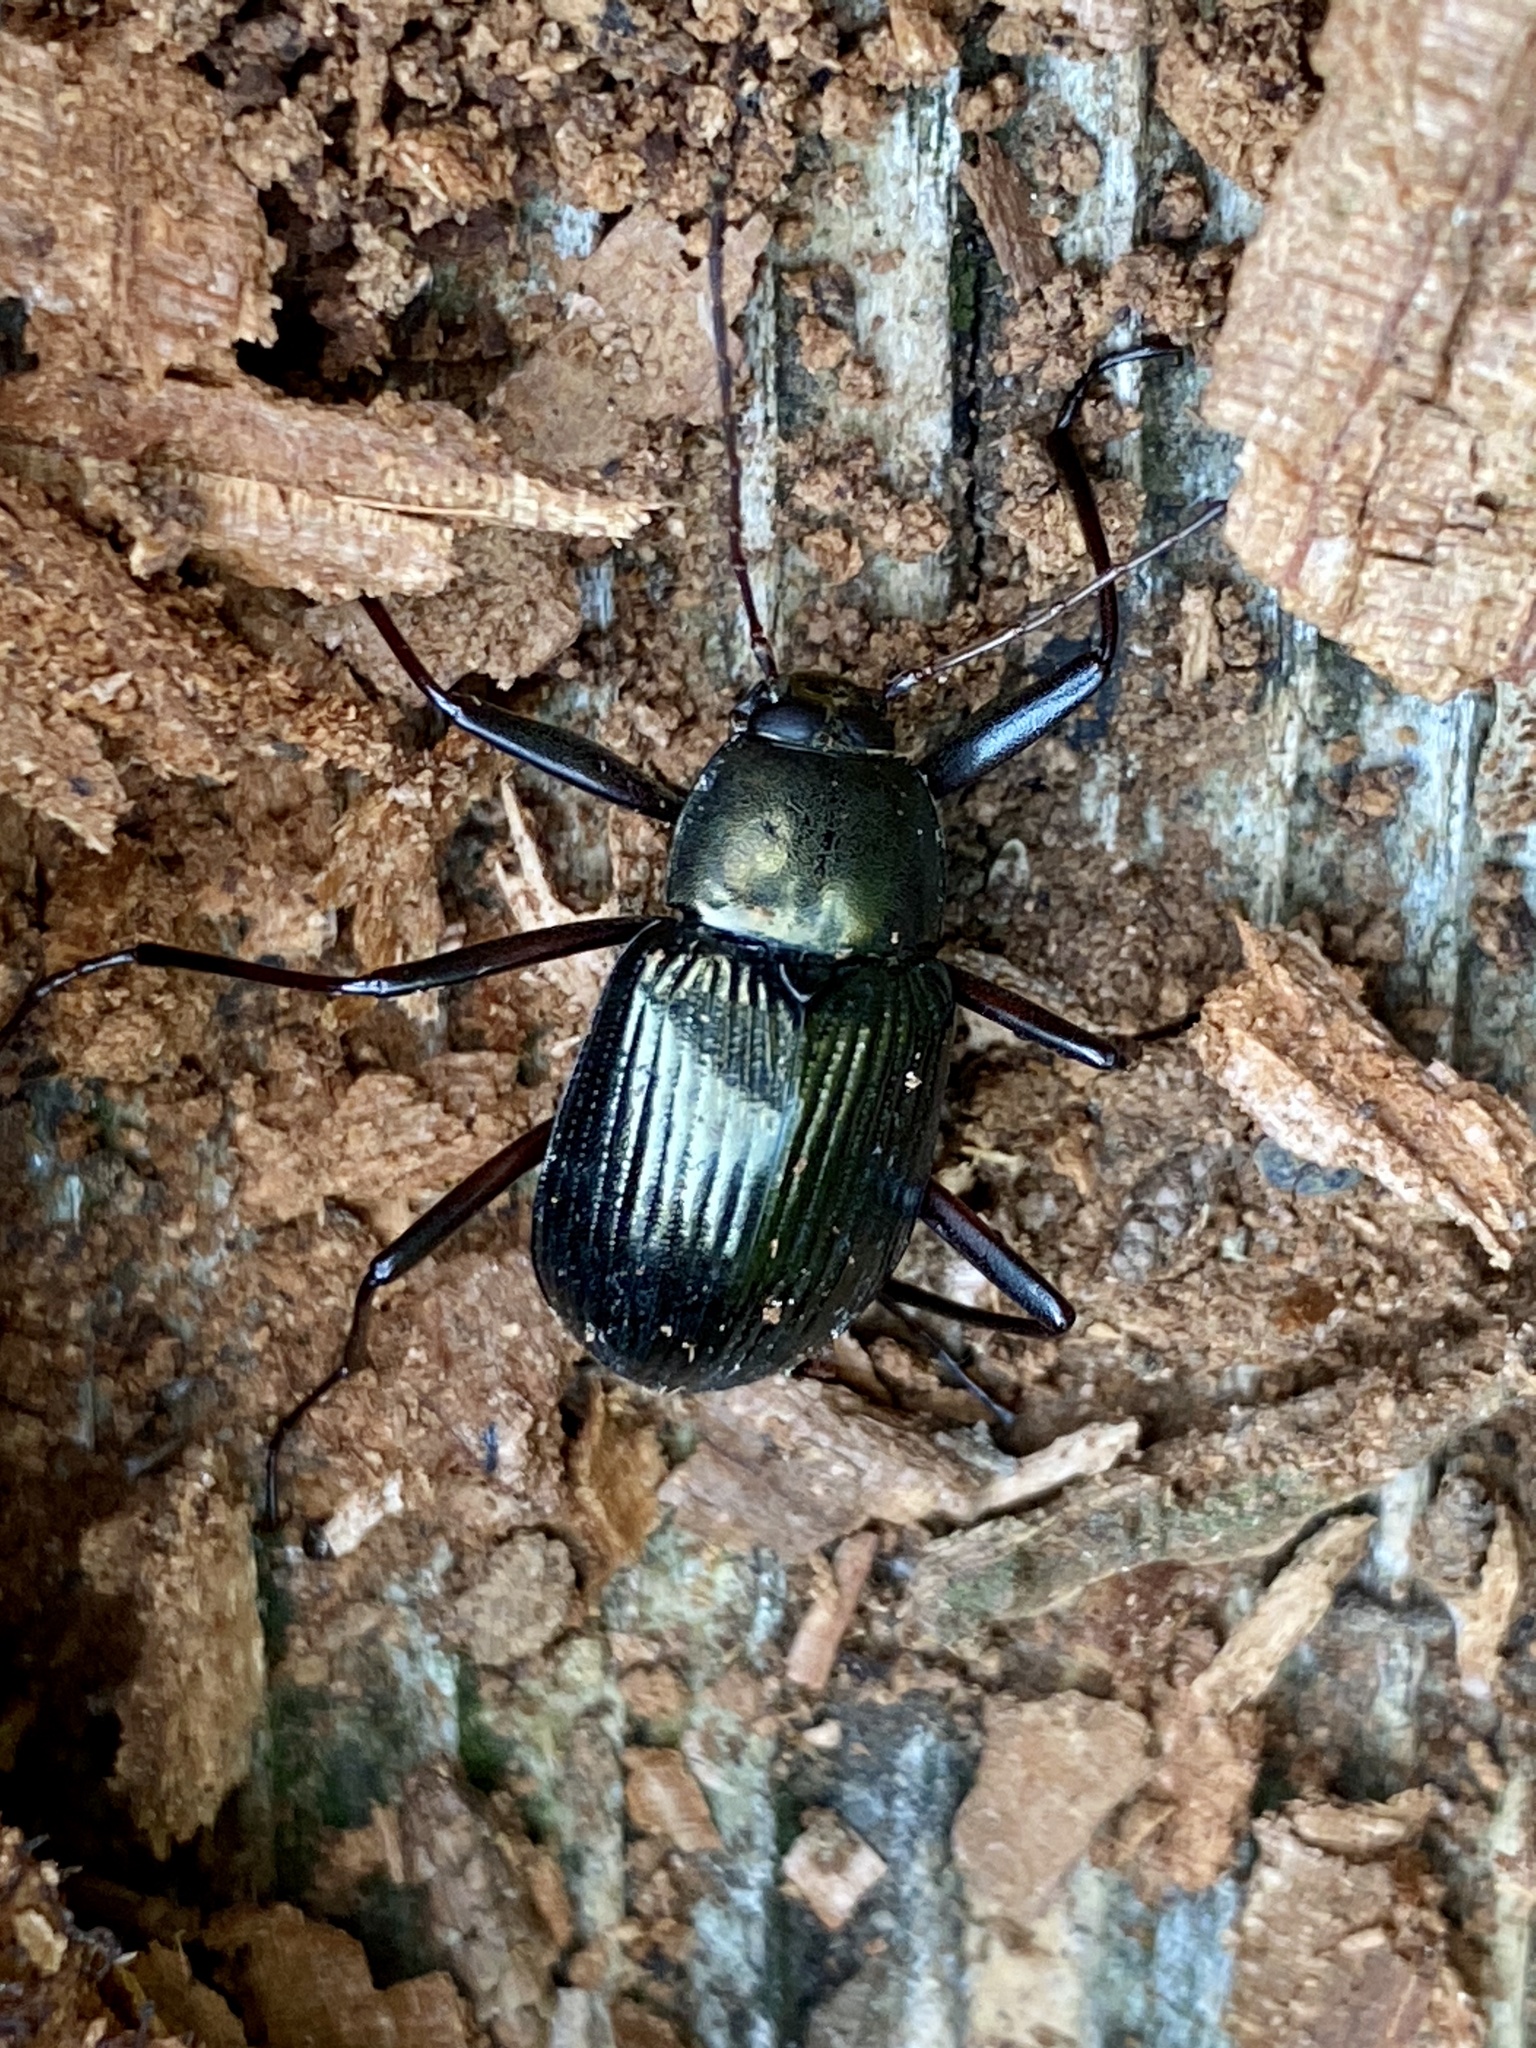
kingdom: Animalia
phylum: Arthropoda
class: Insecta
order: Coleoptera
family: Tenebrionidae
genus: Plesiophthalmus
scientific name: Plesiophthalmus
